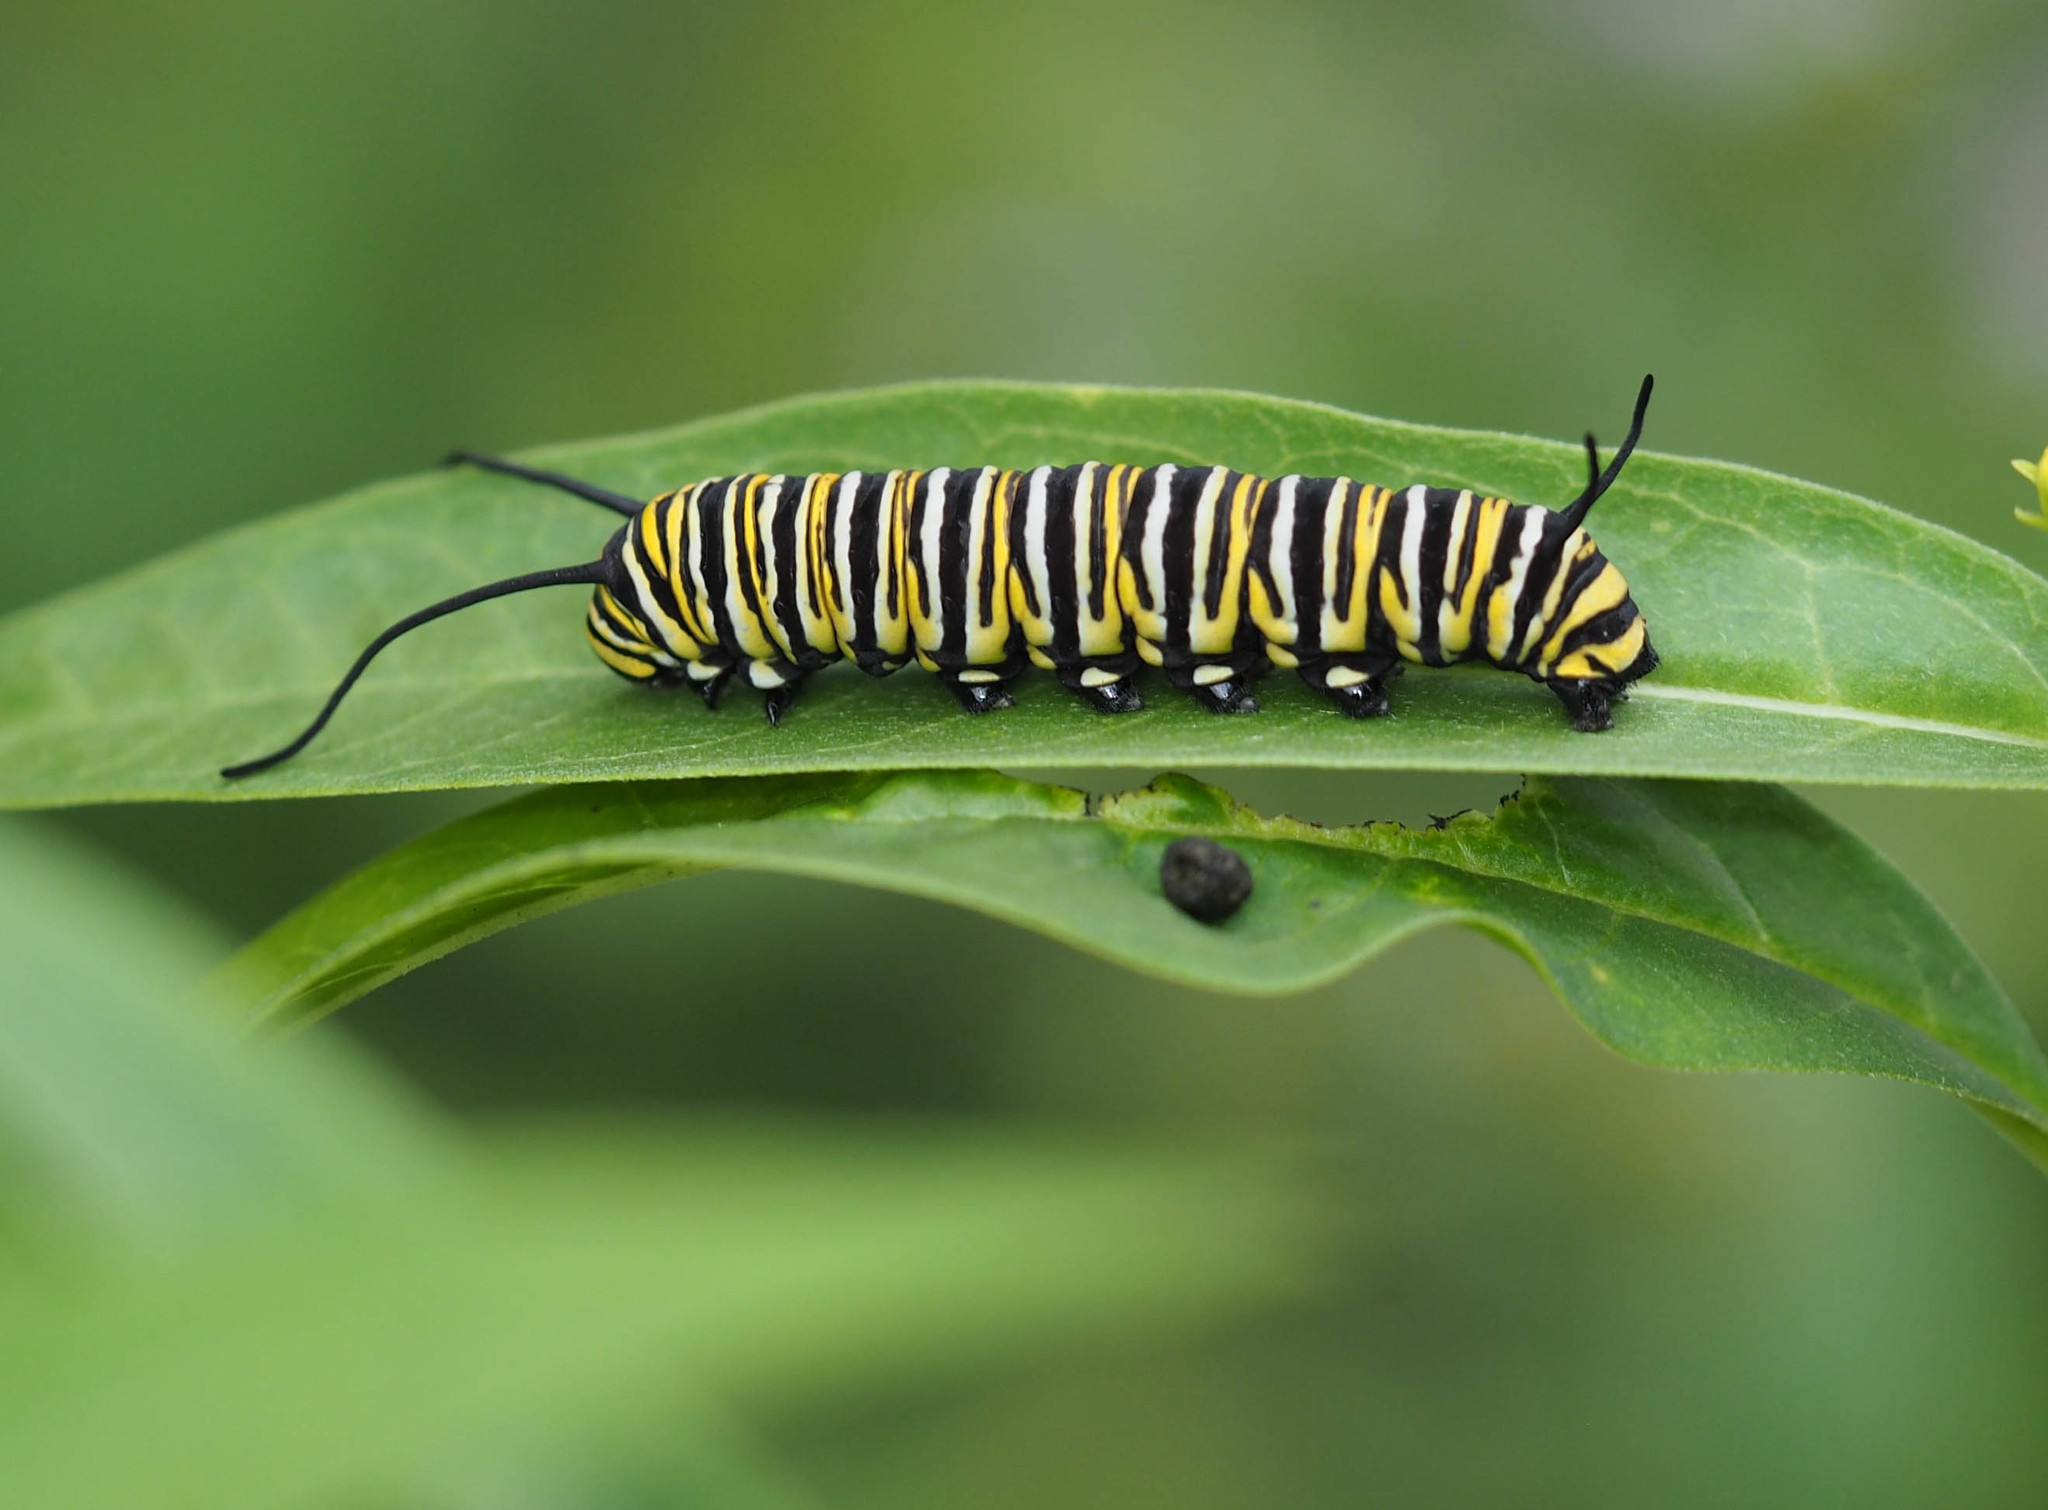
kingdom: Animalia
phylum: Arthropoda
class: Insecta
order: Lepidoptera
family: Nymphalidae
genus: Danaus
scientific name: Danaus plexippus
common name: Monarch
